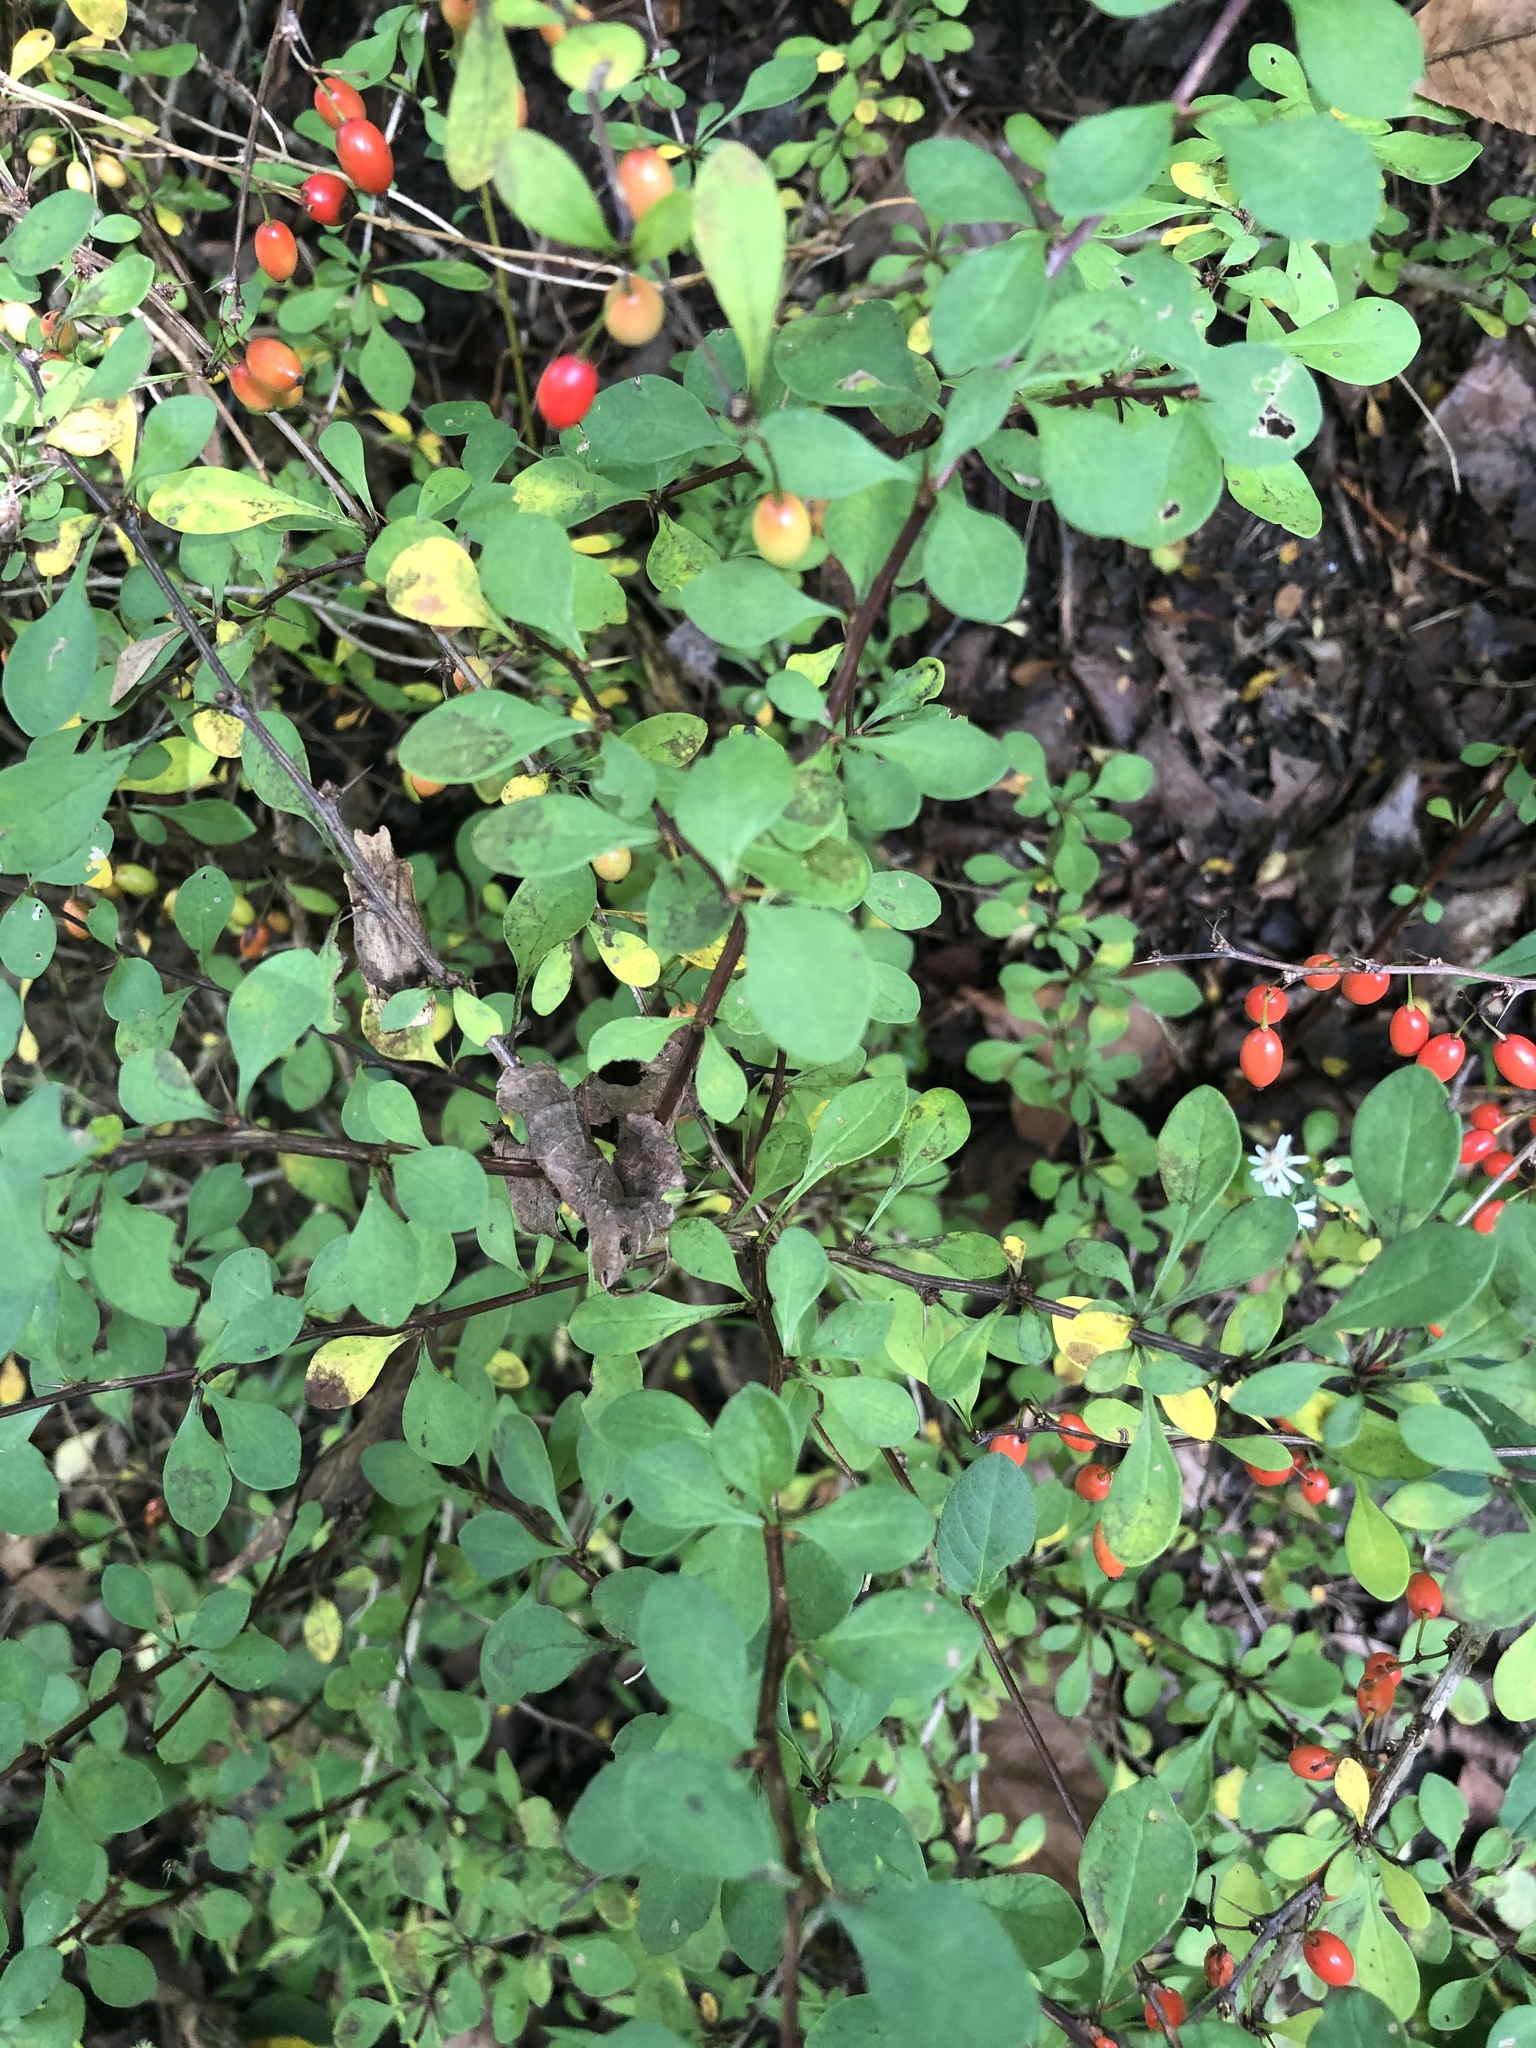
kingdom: Plantae
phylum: Tracheophyta
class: Magnoliopsida
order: Ranunculales
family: Berberidaceae
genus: Berberis
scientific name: Berberis thunbergii
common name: Japanese barberry
